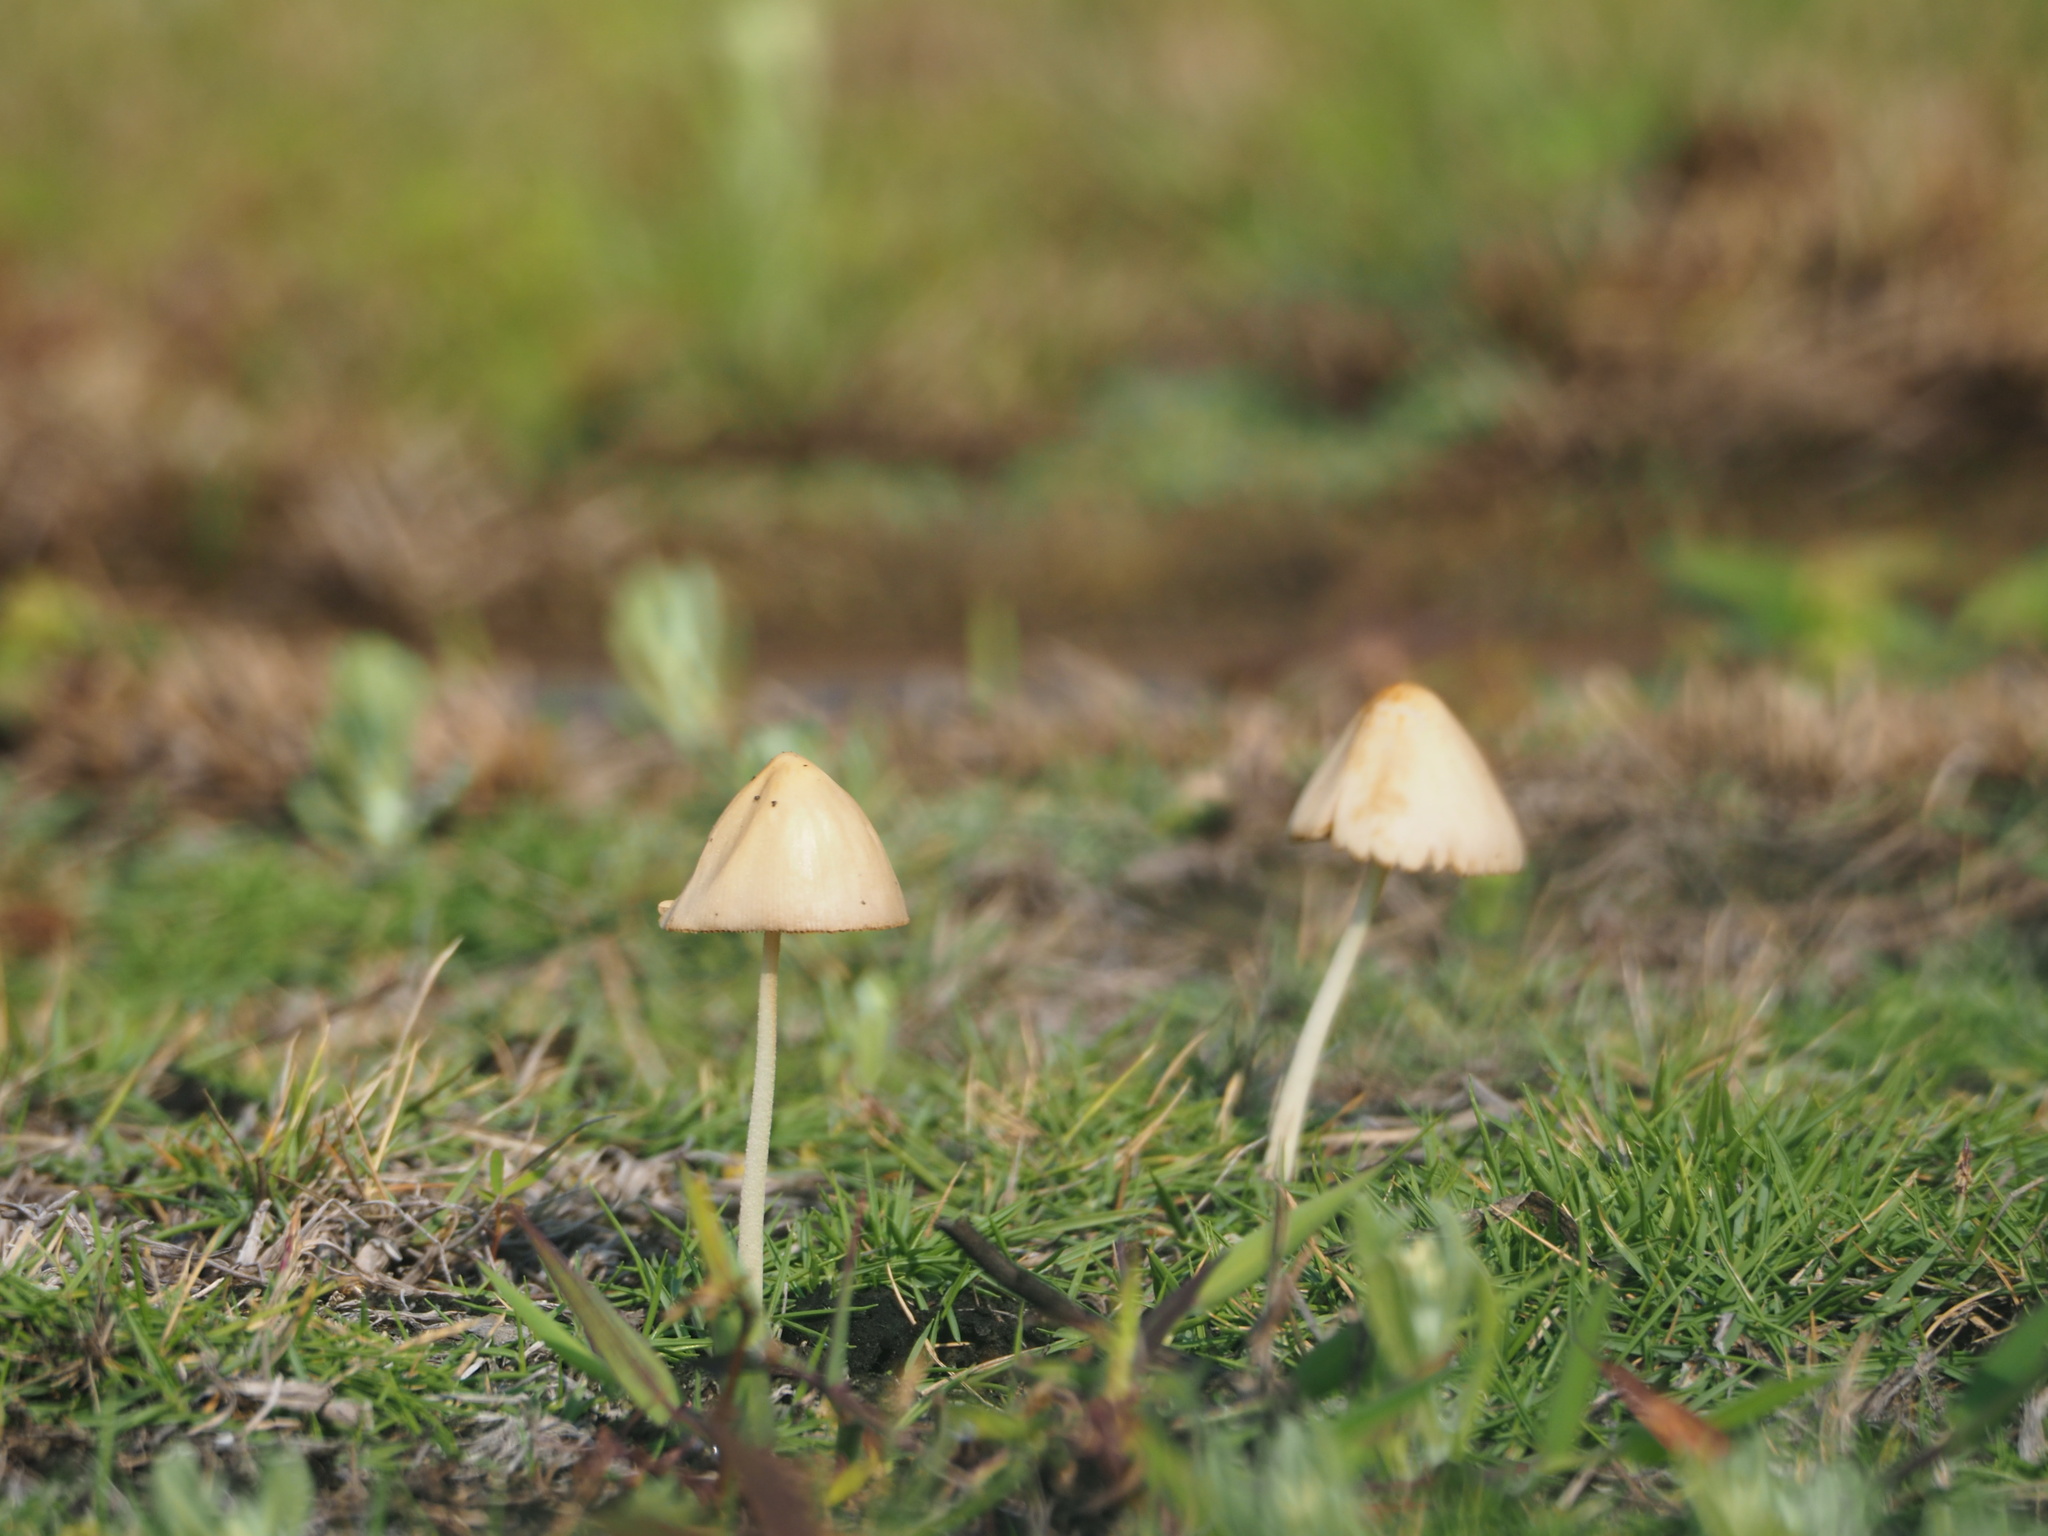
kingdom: Fungi
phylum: Basidiomycota
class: Agaricomycetes
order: Agaricales
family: Bolbitiaceae
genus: Conocybe
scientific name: Conocybe apala
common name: Milky conecap
